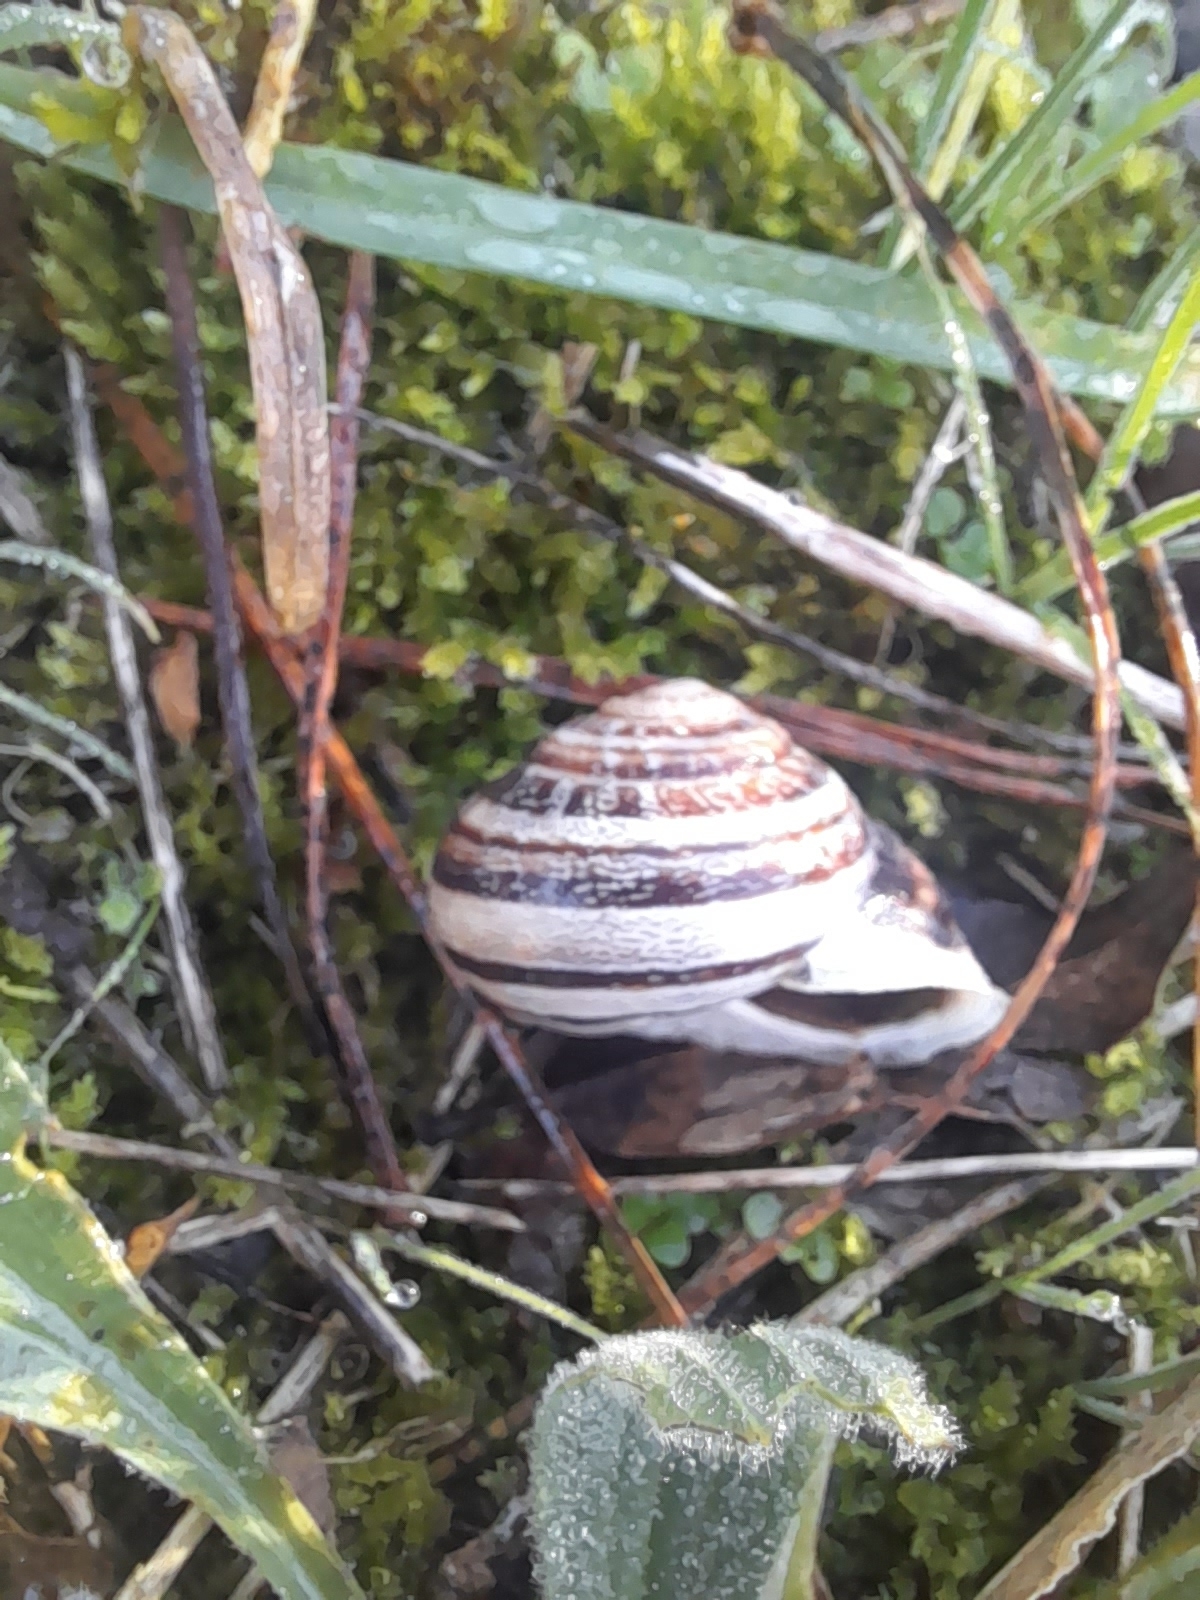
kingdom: Animalia
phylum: Mollusca
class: Gastropoda
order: Stylommatophora
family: Helicidae
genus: Eobania
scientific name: Eobania vermiculata
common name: Chocolateband snail
